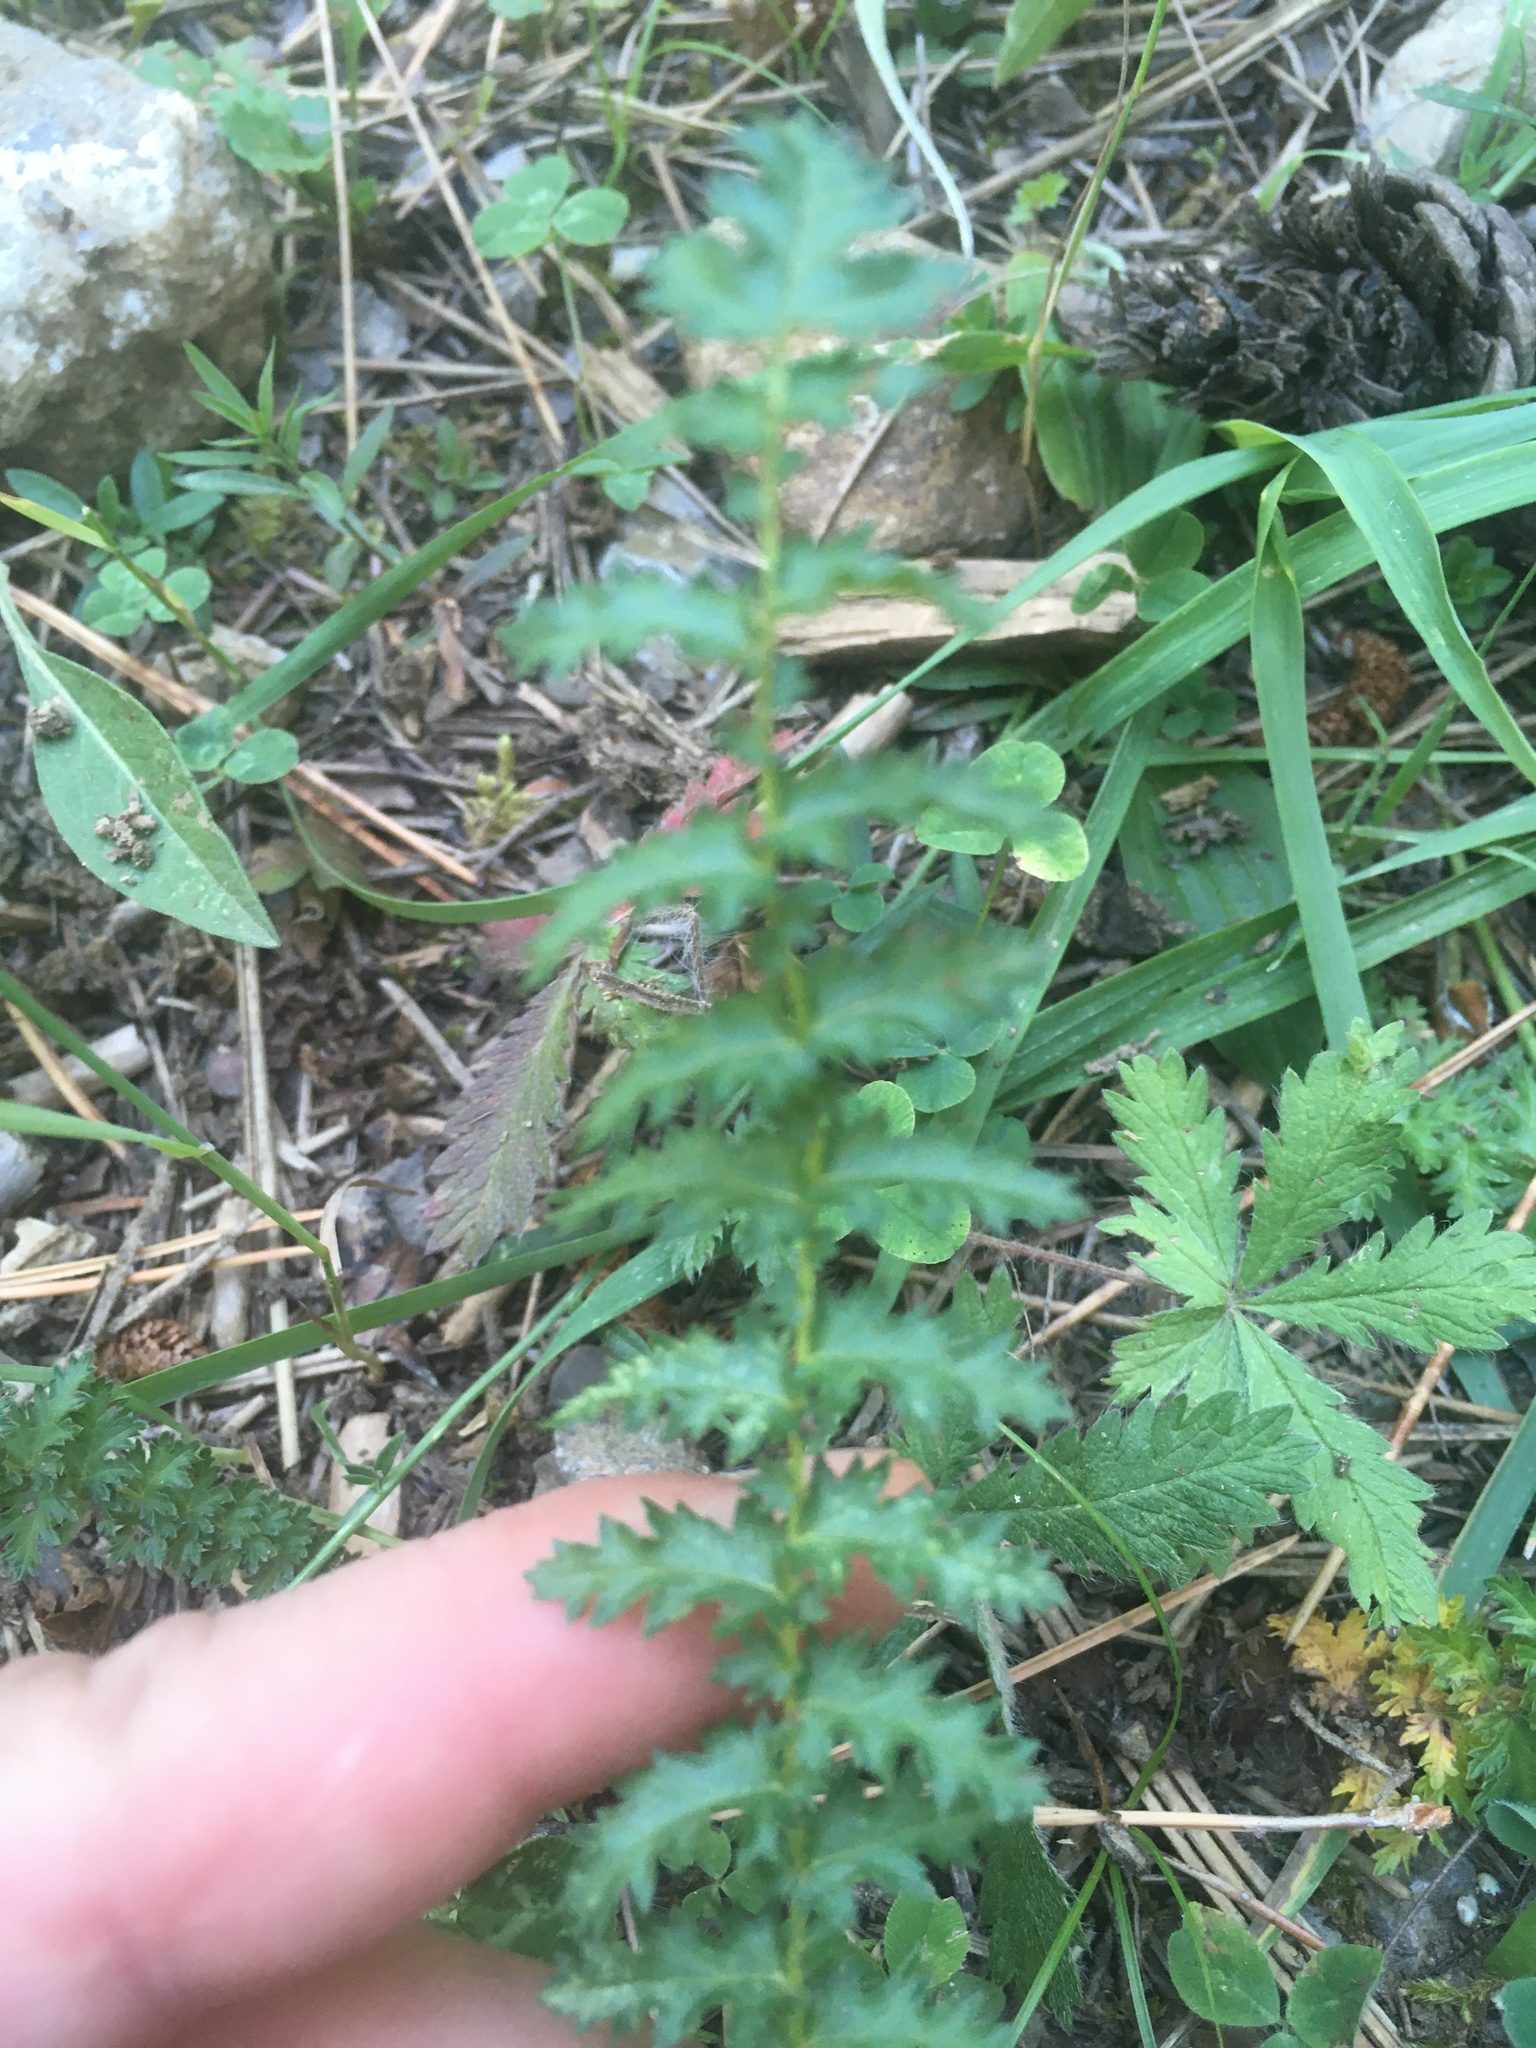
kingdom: Plantae
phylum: Tracheophyta
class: Magnoliopsida
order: Rosales
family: Rosaceae
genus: Filipendula
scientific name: Filipendula vulgaris
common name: Dropwort
